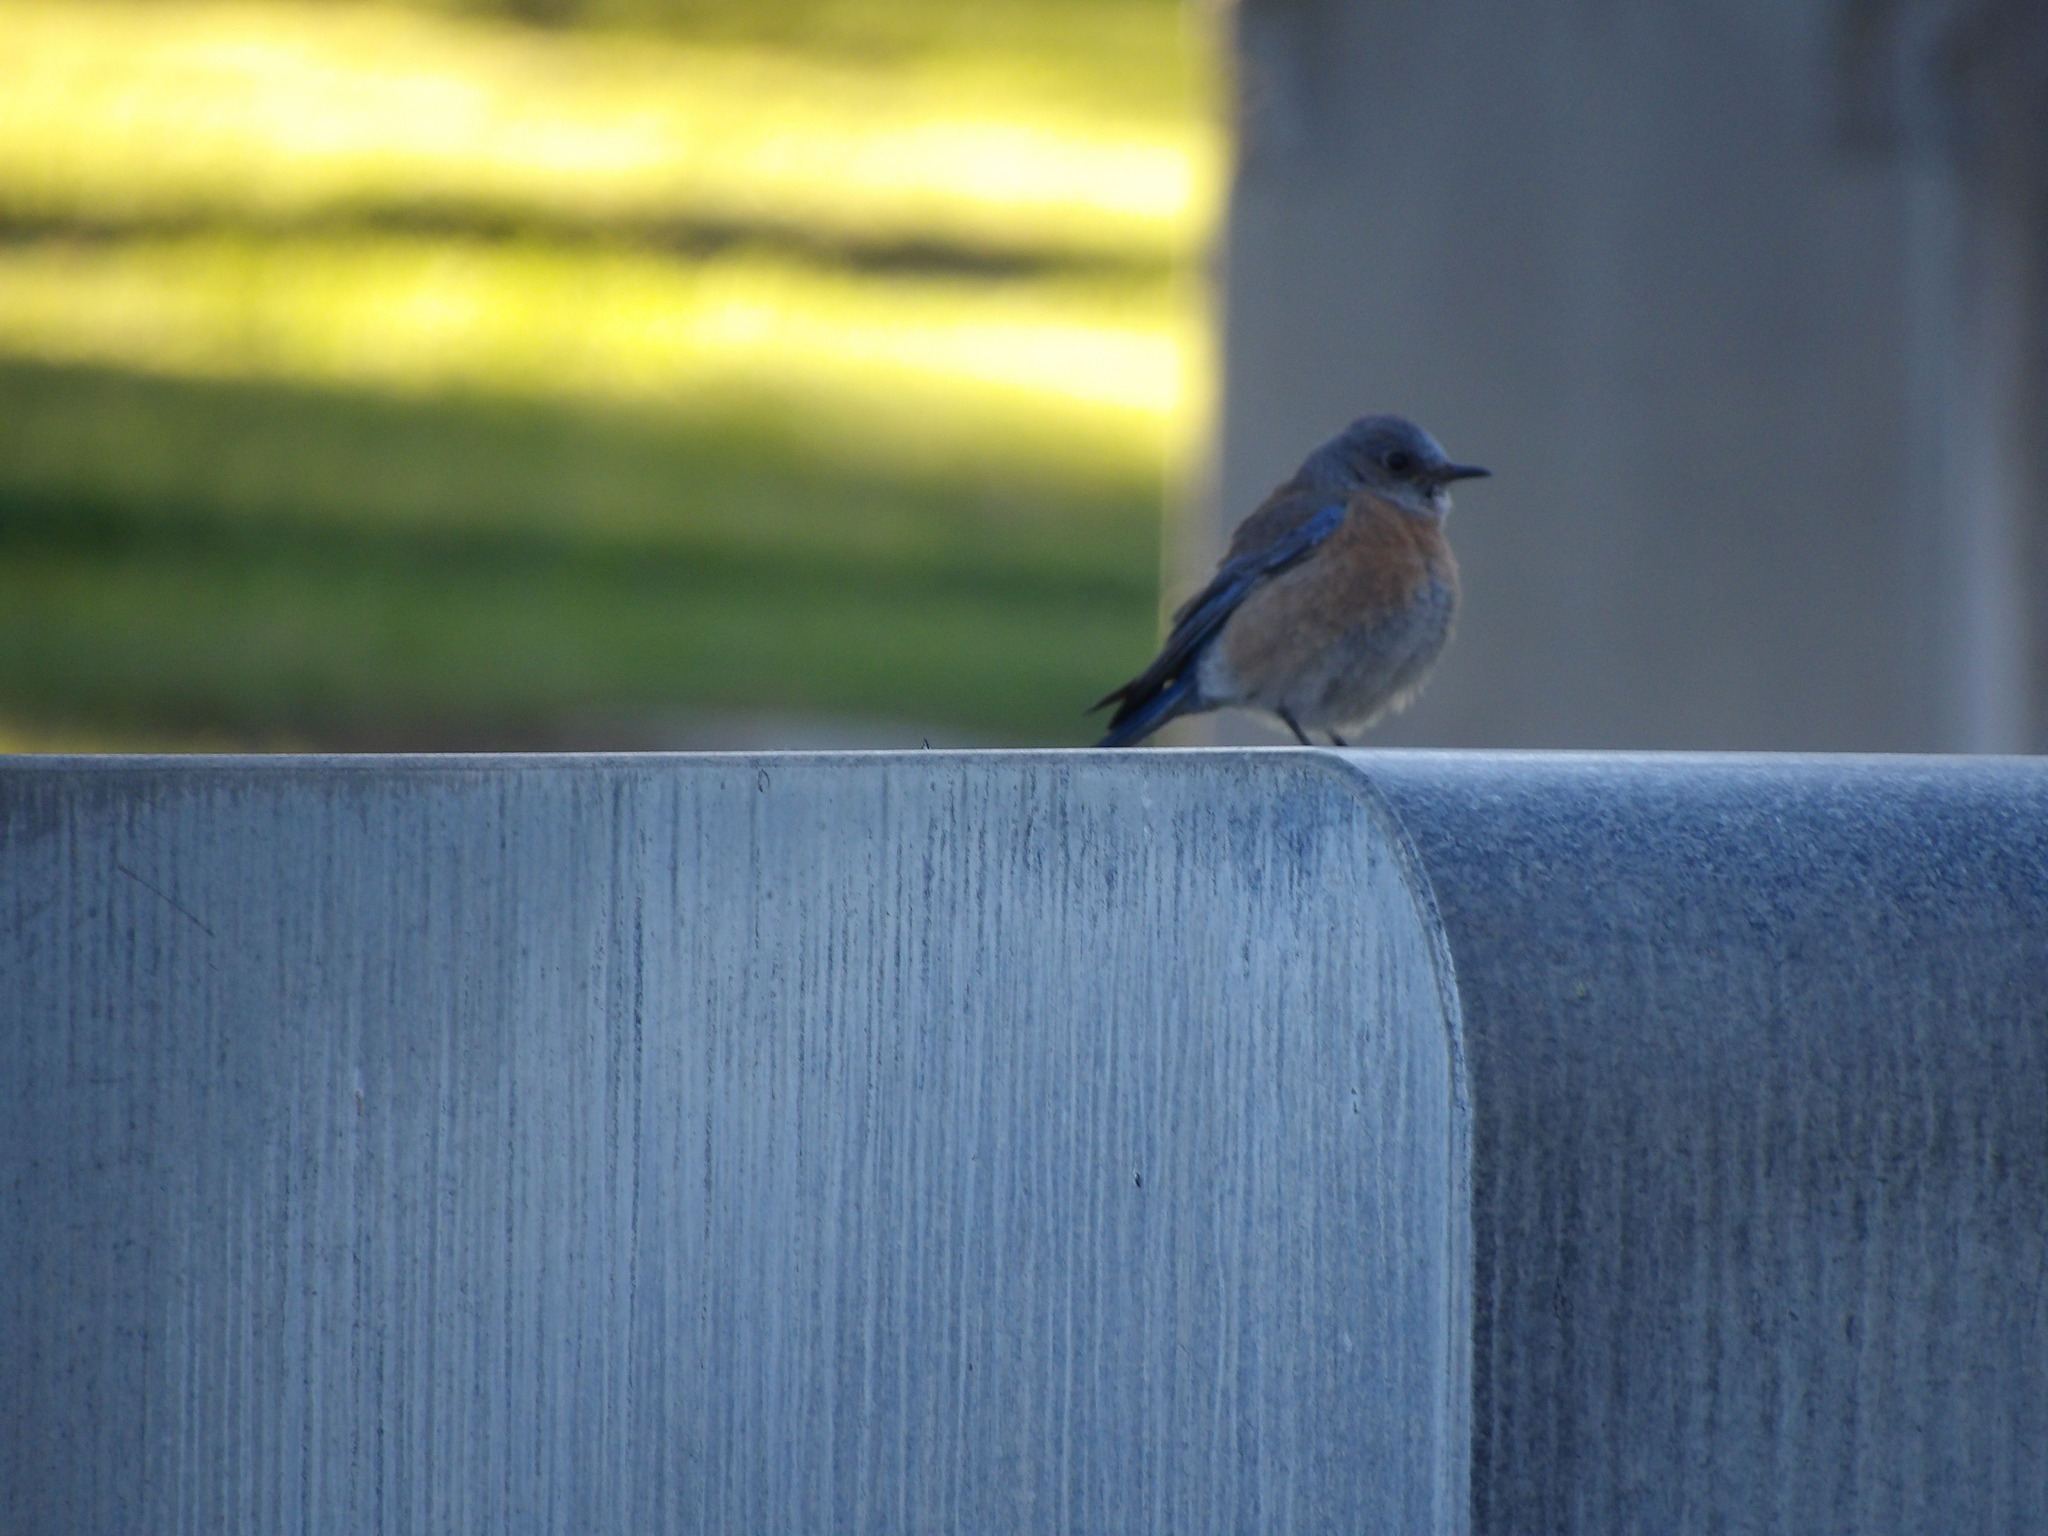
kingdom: Animalia
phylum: Chordata
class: Aves
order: Passeriformes
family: Turdidae
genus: Sialia
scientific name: Sialia mexicana
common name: Western bluebird
